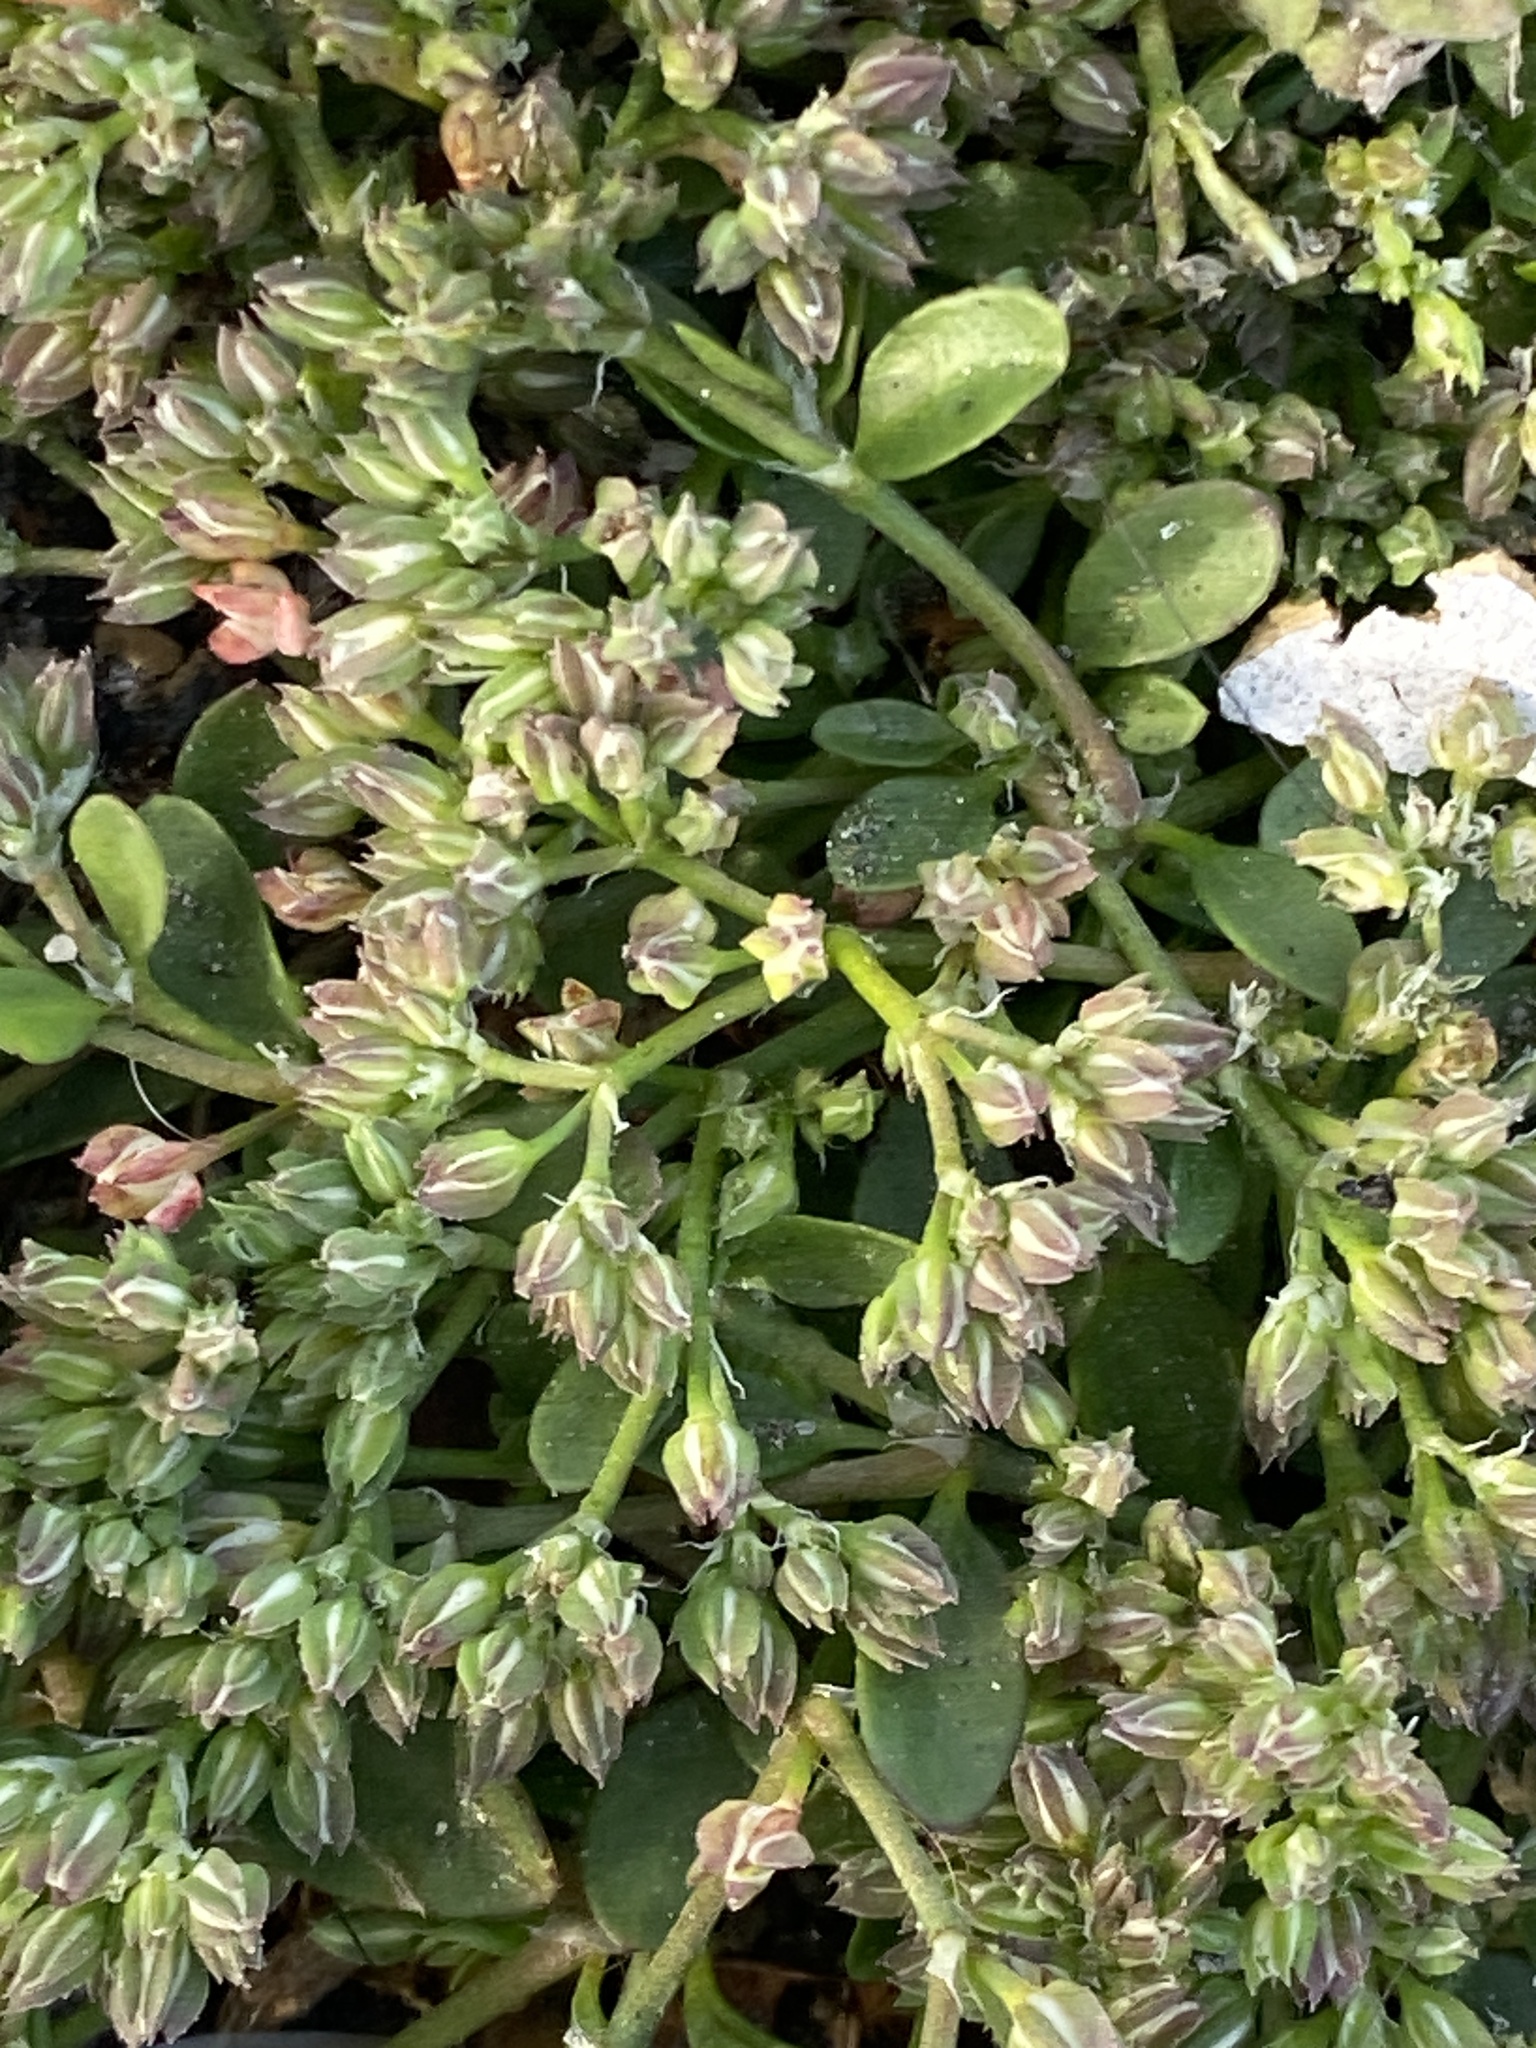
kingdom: Plantae
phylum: Tracheophyta
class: Magnoliopsida
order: Caryophyllales
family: Caryophyllaceae
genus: Polycarpon
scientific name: Polycarpon tetraphyllum
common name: Four-leaved all-seed
